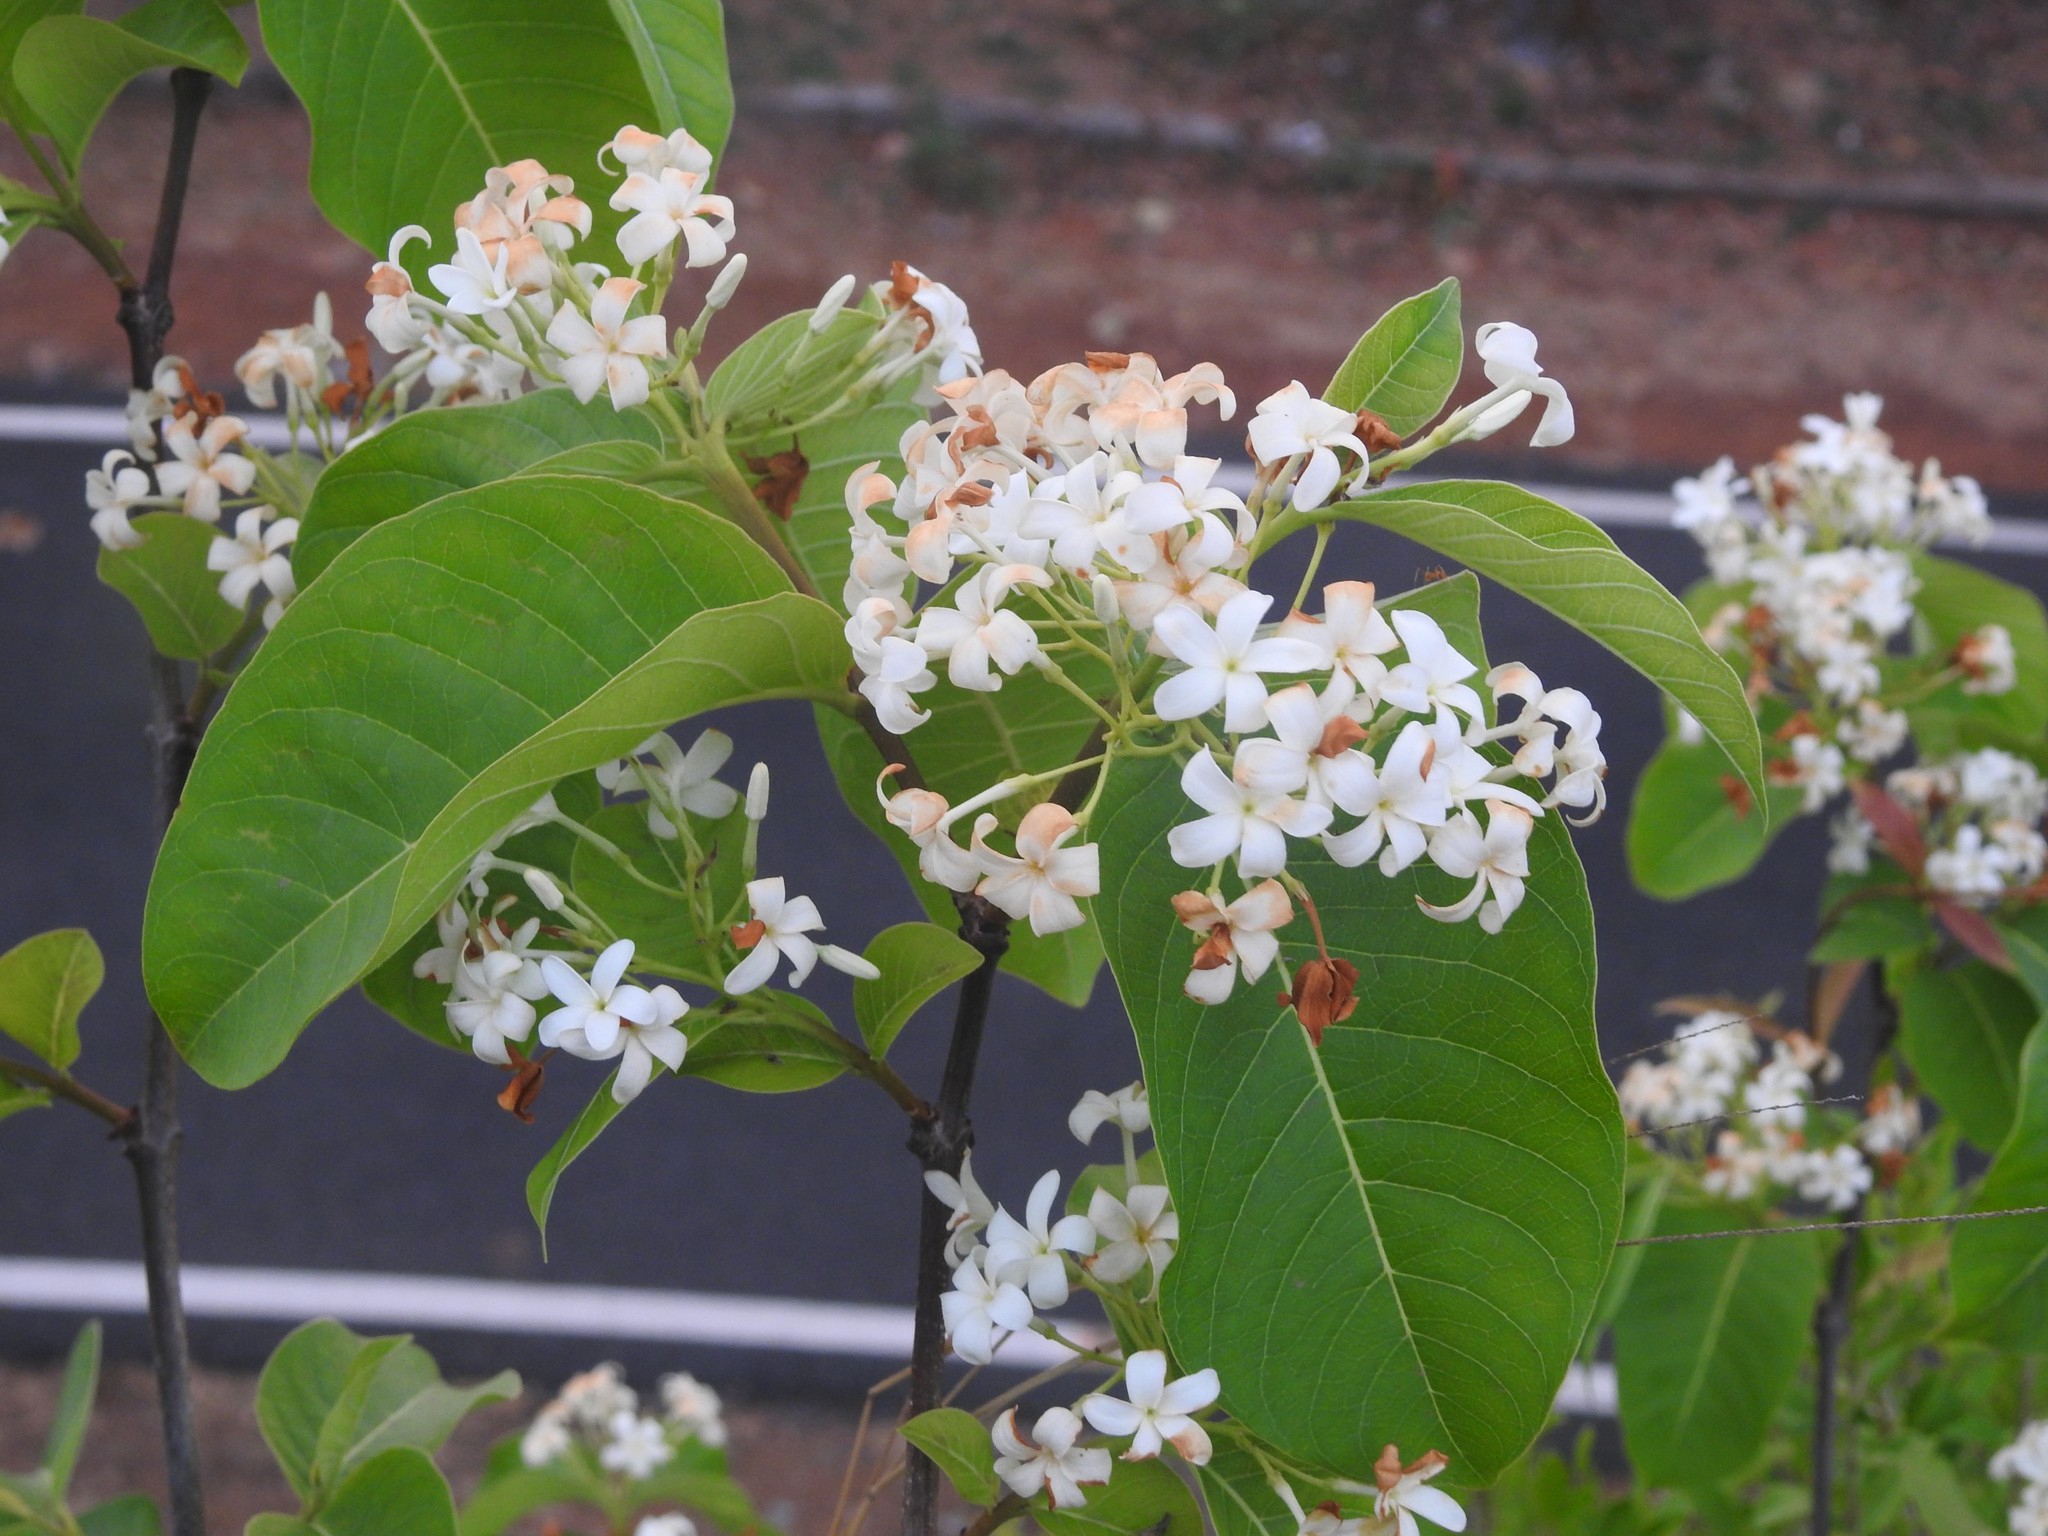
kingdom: Plantae
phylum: Tracheophyta
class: Magnoliopsida
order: Gentianales
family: Apocynaceae
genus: Holarrhena
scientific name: Holarrhena pubescens
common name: Bitter oleander
